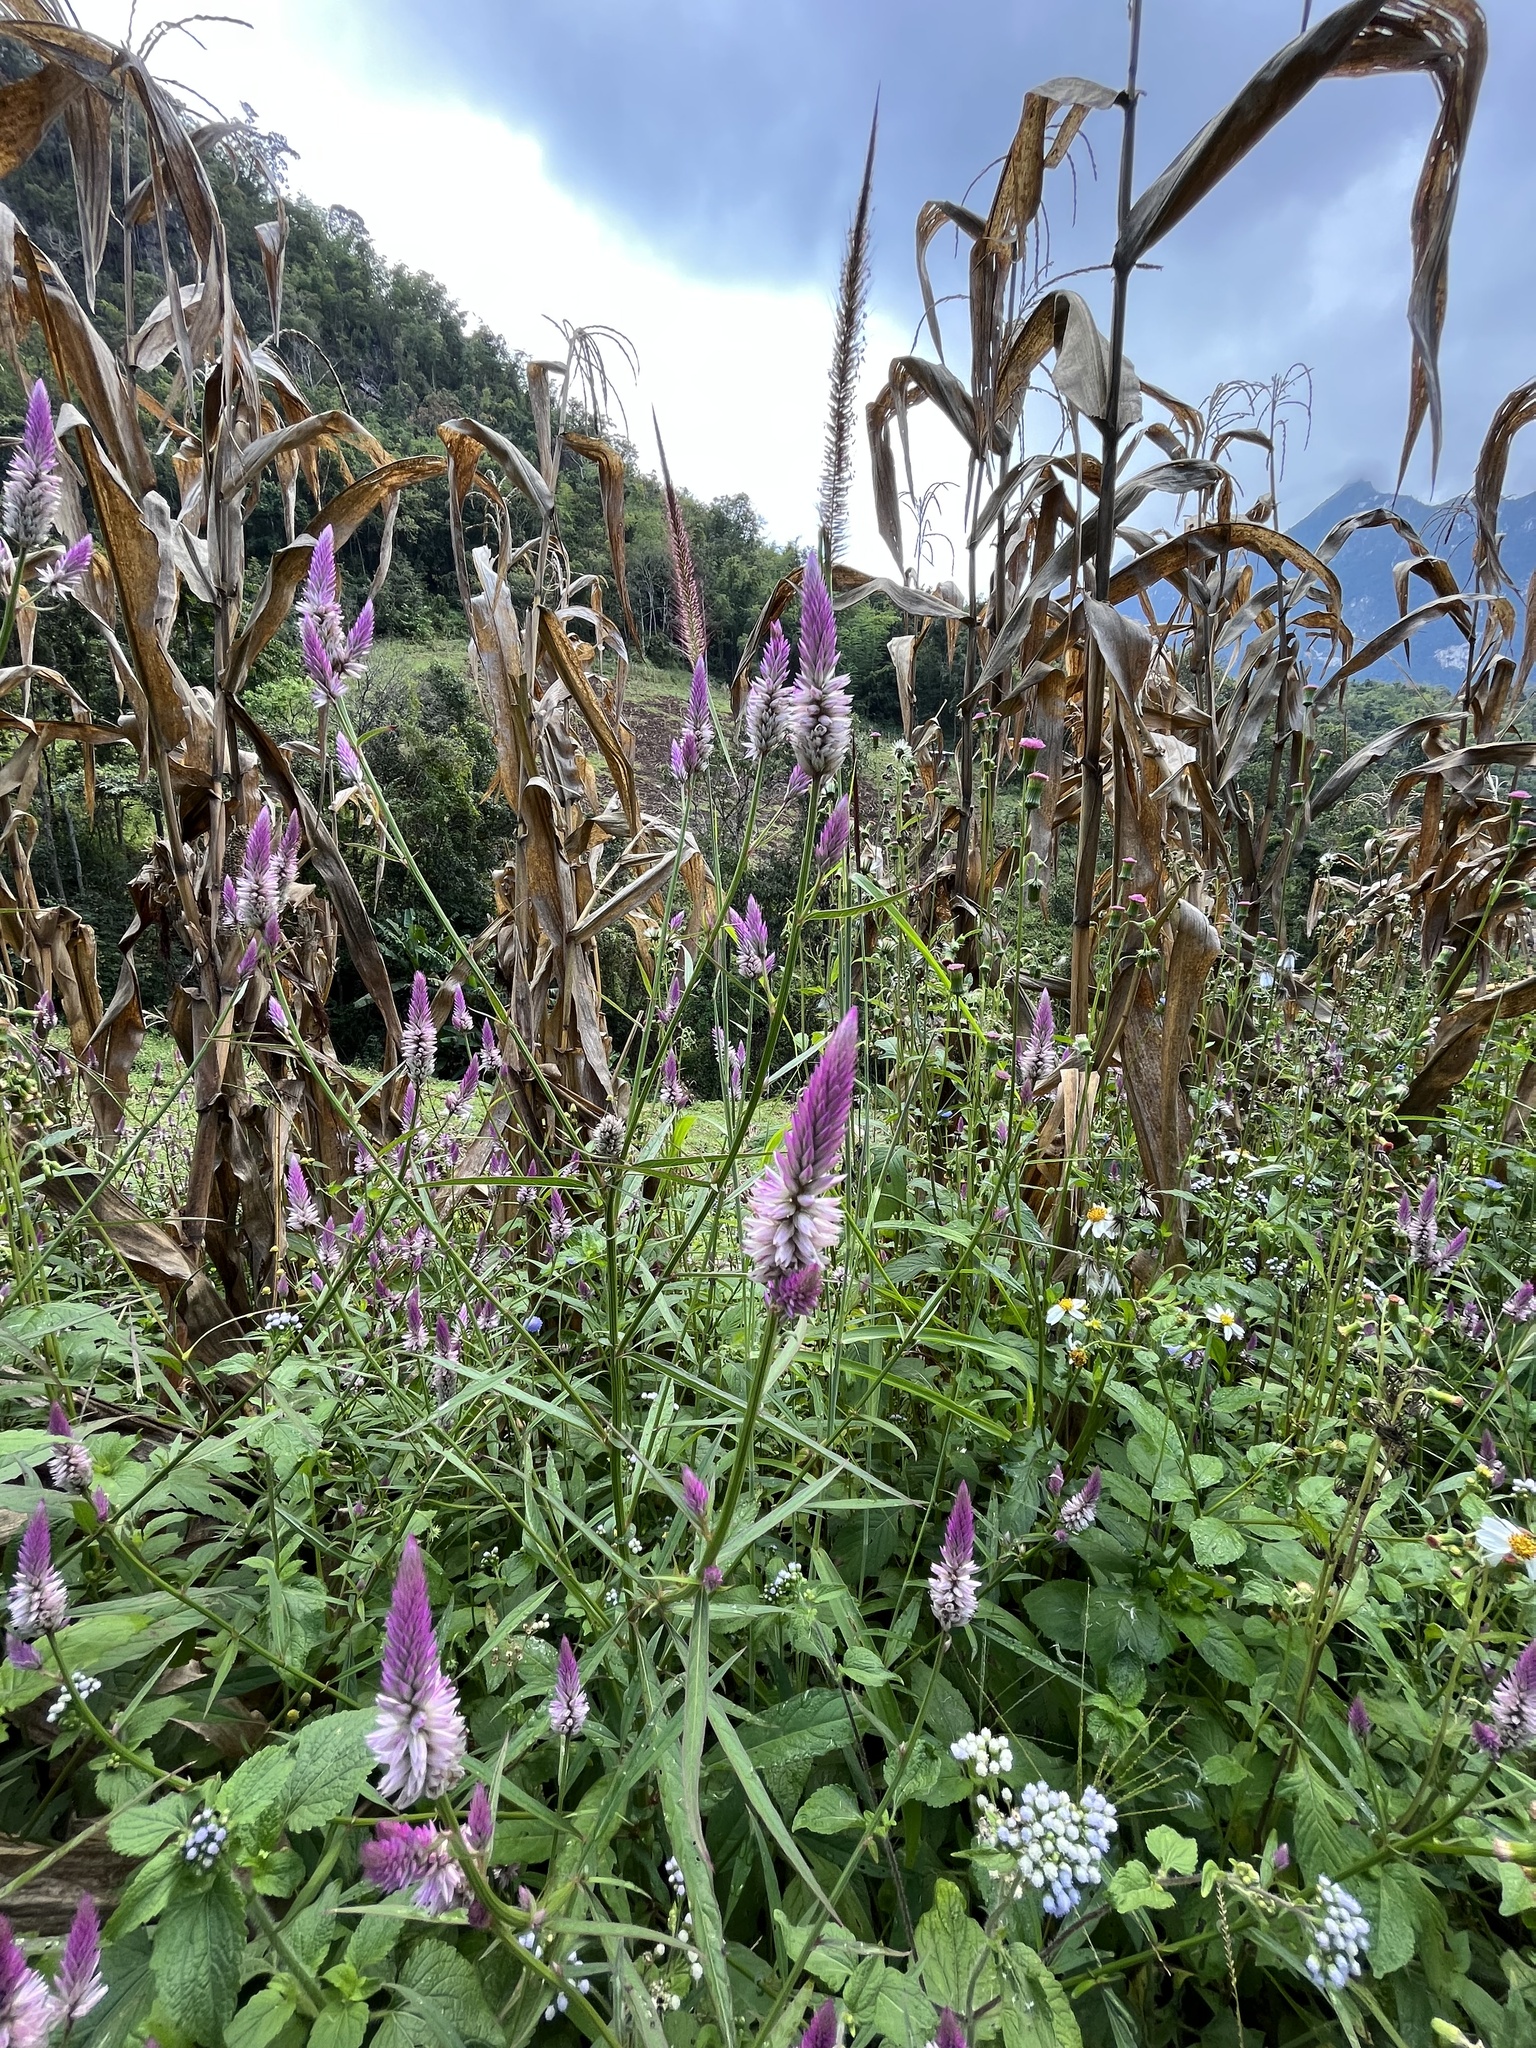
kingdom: Plantae
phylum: Tracheophyta
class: Magnoliopsida
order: Caryophyllales
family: Amaranthaceae
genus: Celosia
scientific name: Celosia argentea
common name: Feather cockscomb
